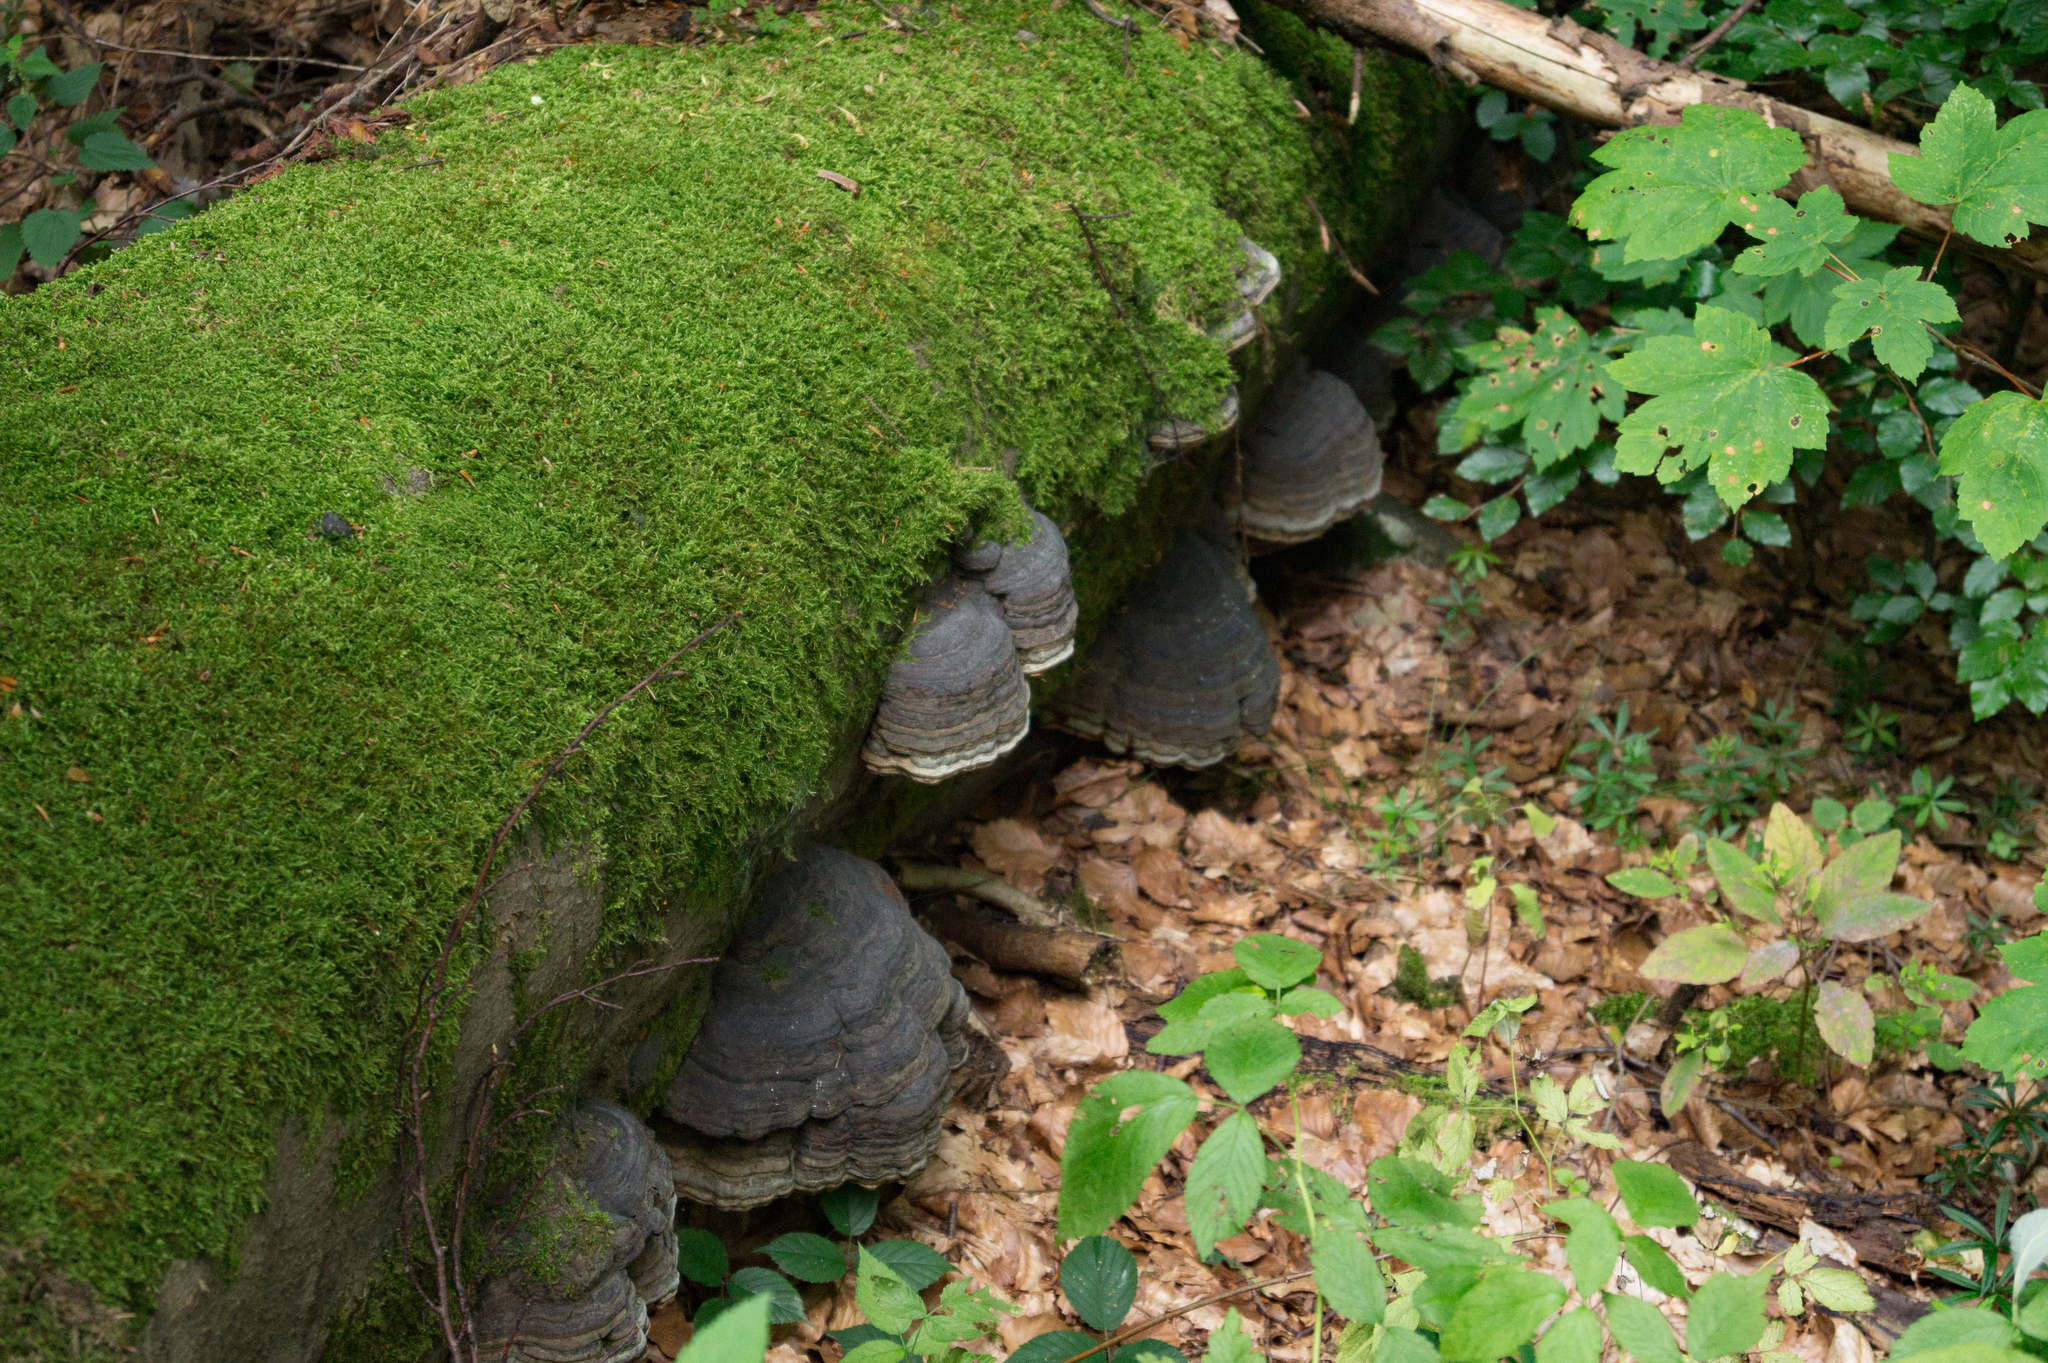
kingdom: Fungi
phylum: Basidiomycota
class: Agaricomycetes
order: Polyporales
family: Polyporaceae
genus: Fomes
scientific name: Fomes fomentarius
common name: Hoof fungus
